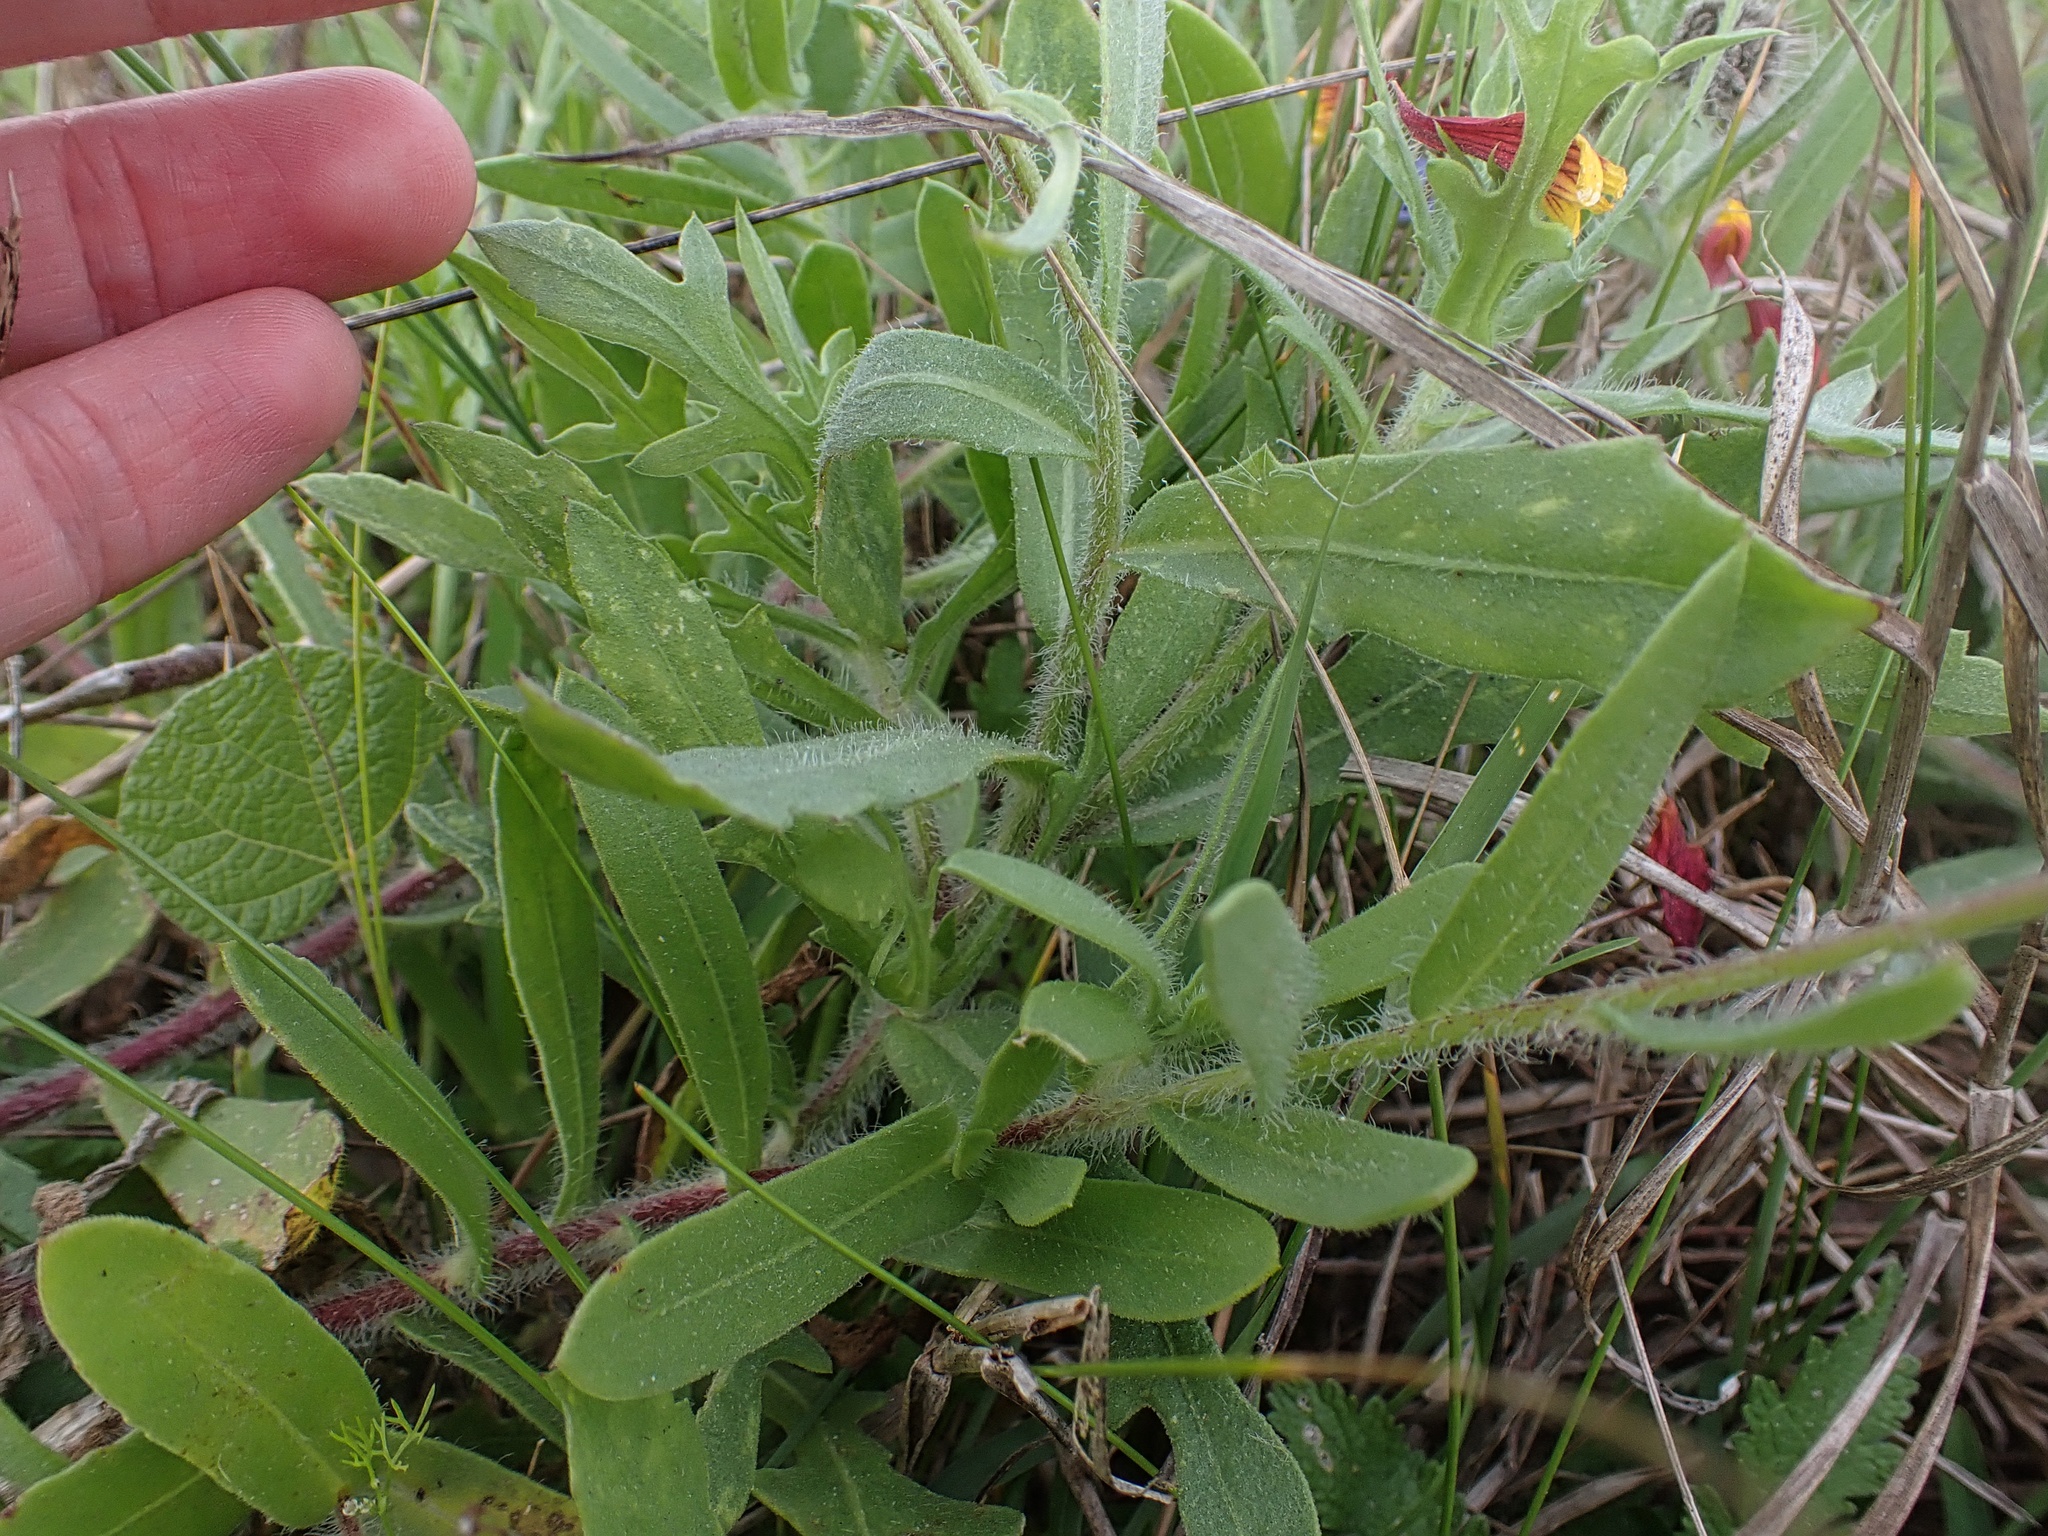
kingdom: Plantae
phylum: Tracheophyta
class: Magnoliopsida
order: Asterales
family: Asteraceae
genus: Gaillardia
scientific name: Gaillardia pulchella
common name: Firewheel
